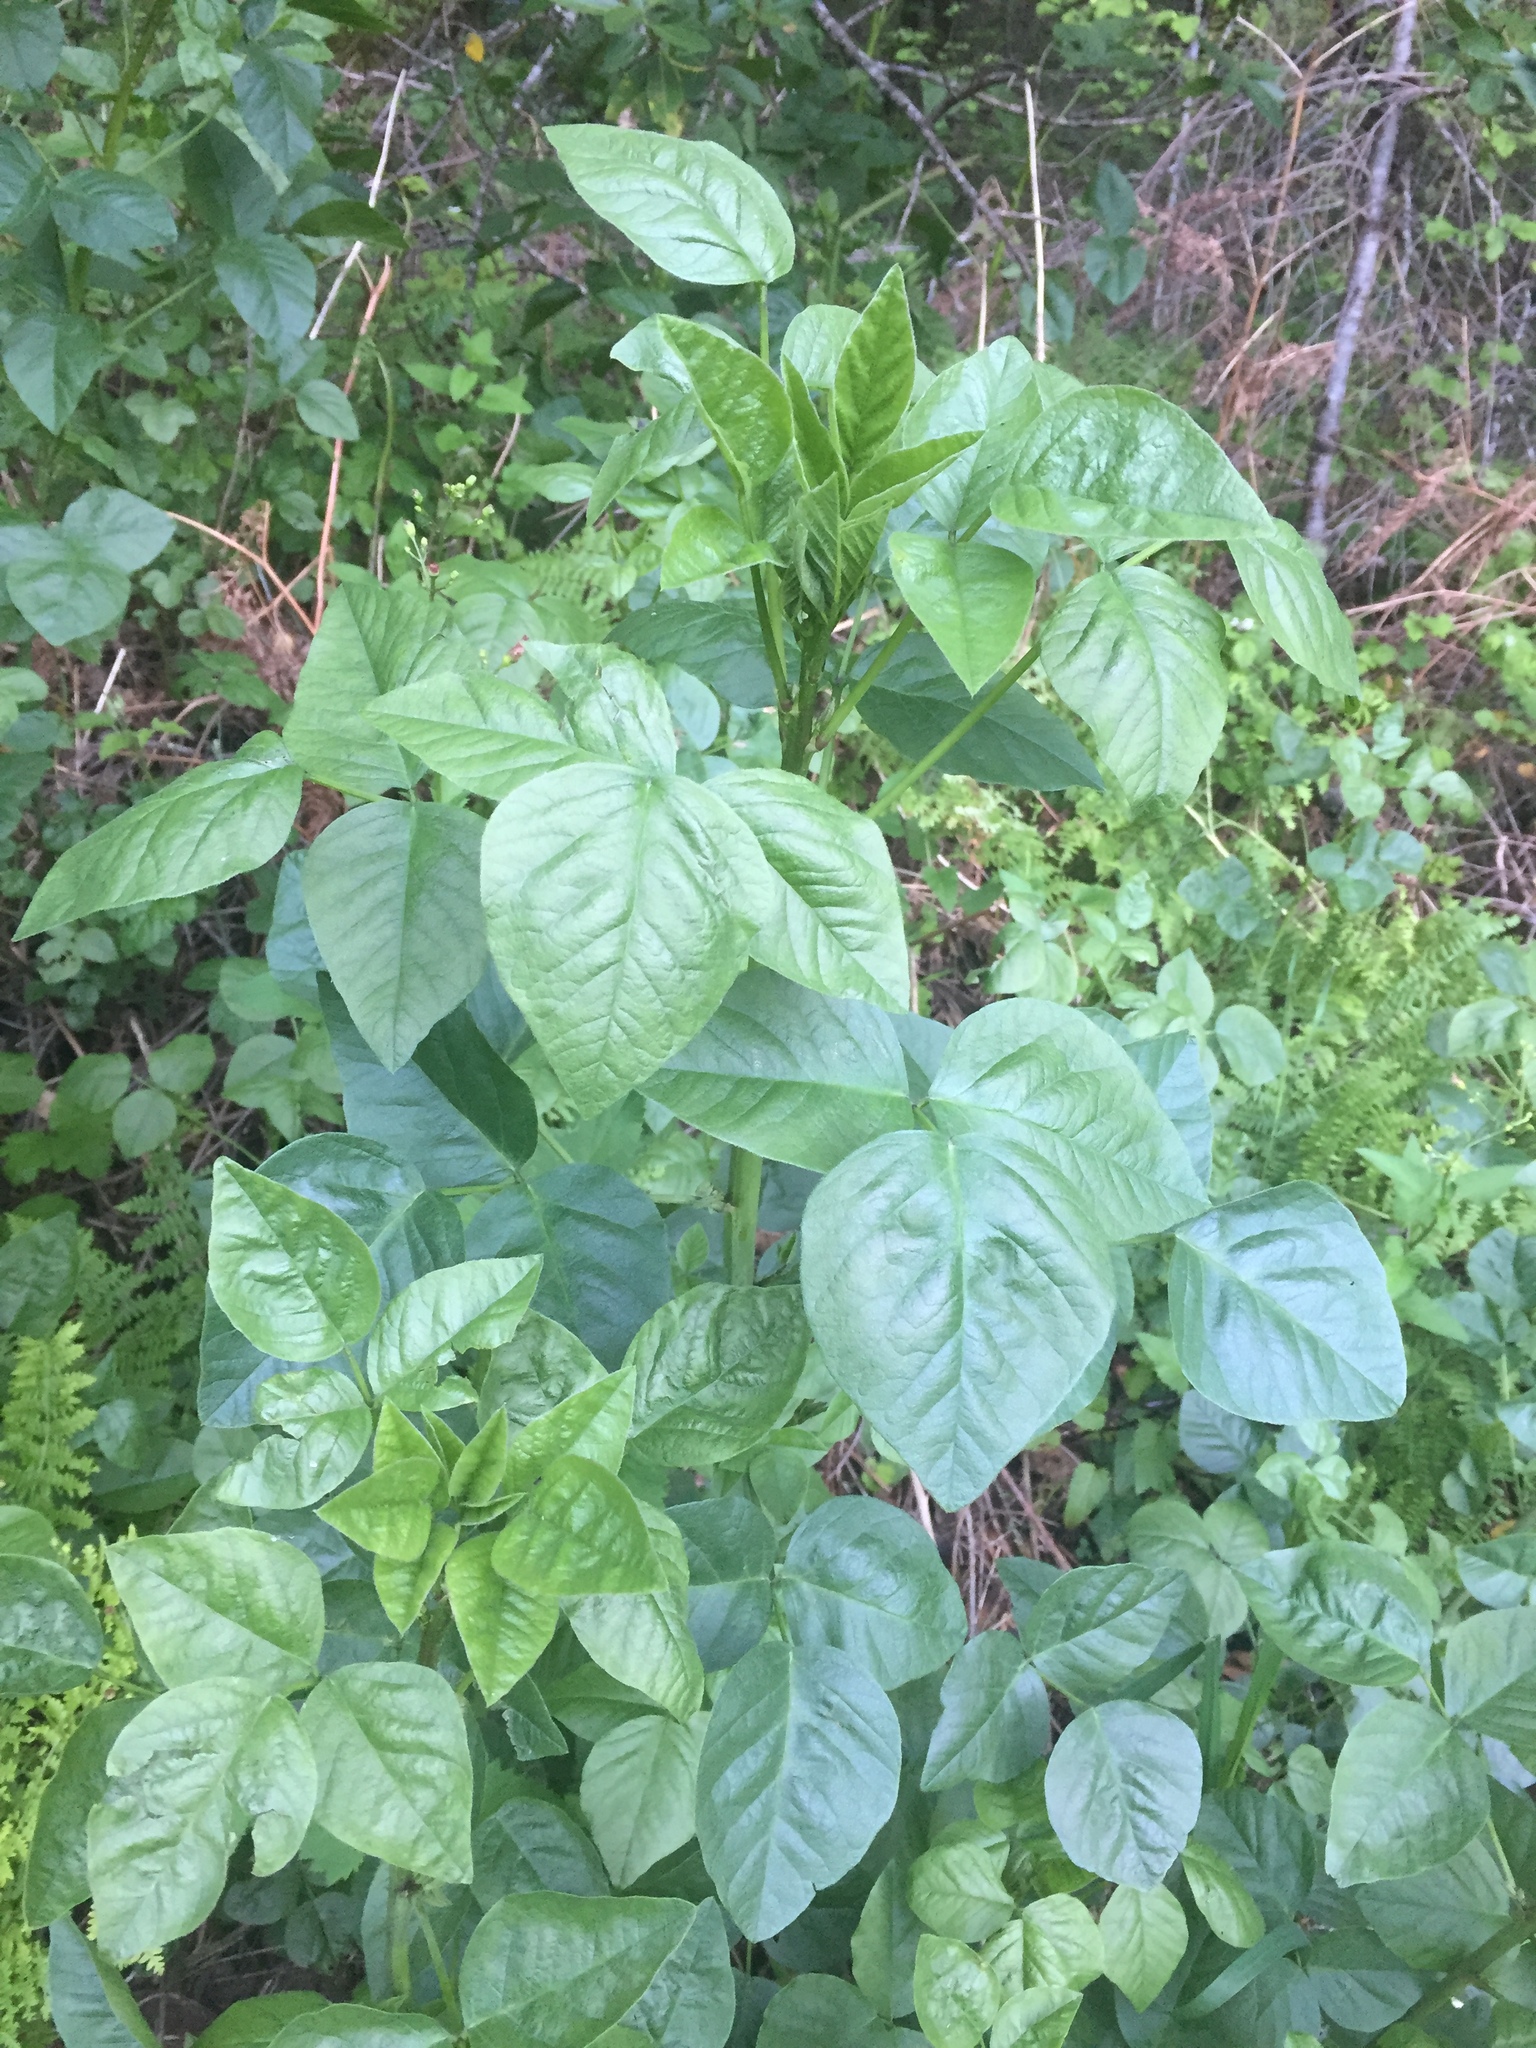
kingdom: Plantae
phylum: Tracheophyta
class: Magnoliopsida
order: Fabales
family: Fabaceae
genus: Hoita
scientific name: Hoita macrostachya
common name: Leatherroot
